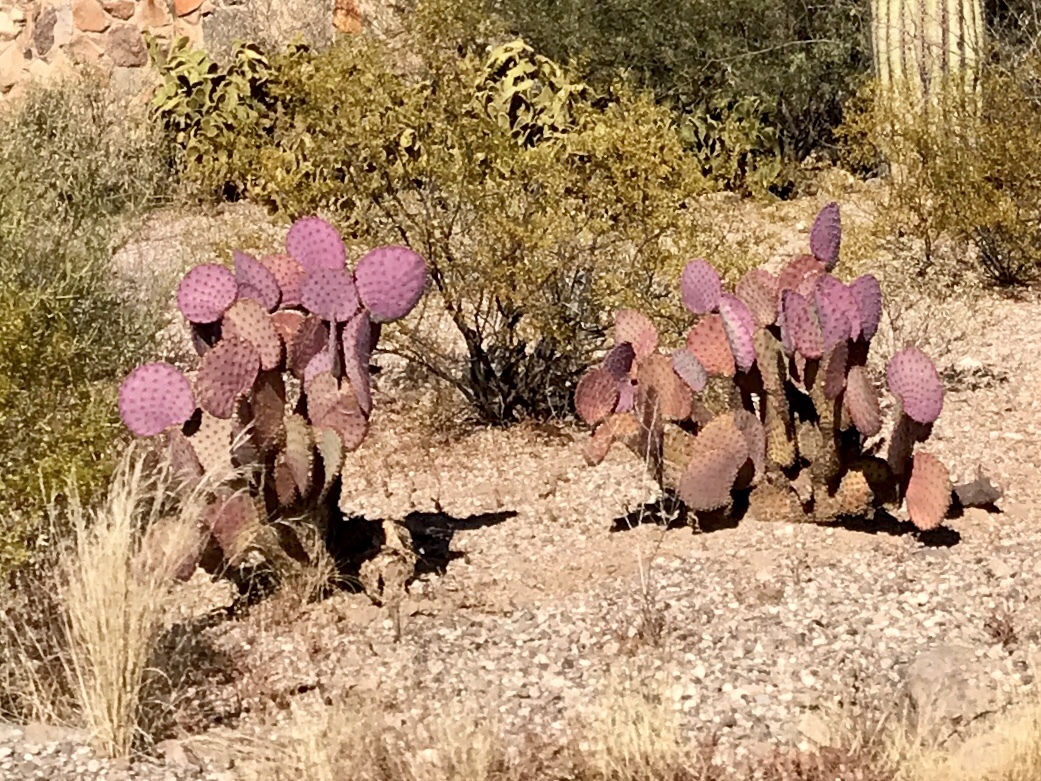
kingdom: Plantae
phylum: Tracheophyta
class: Magnoliopsida
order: Caryophyllales
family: Cactaceae
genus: Opuntia
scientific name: Opuntia gosseliniana
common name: Violet prickly-pear
